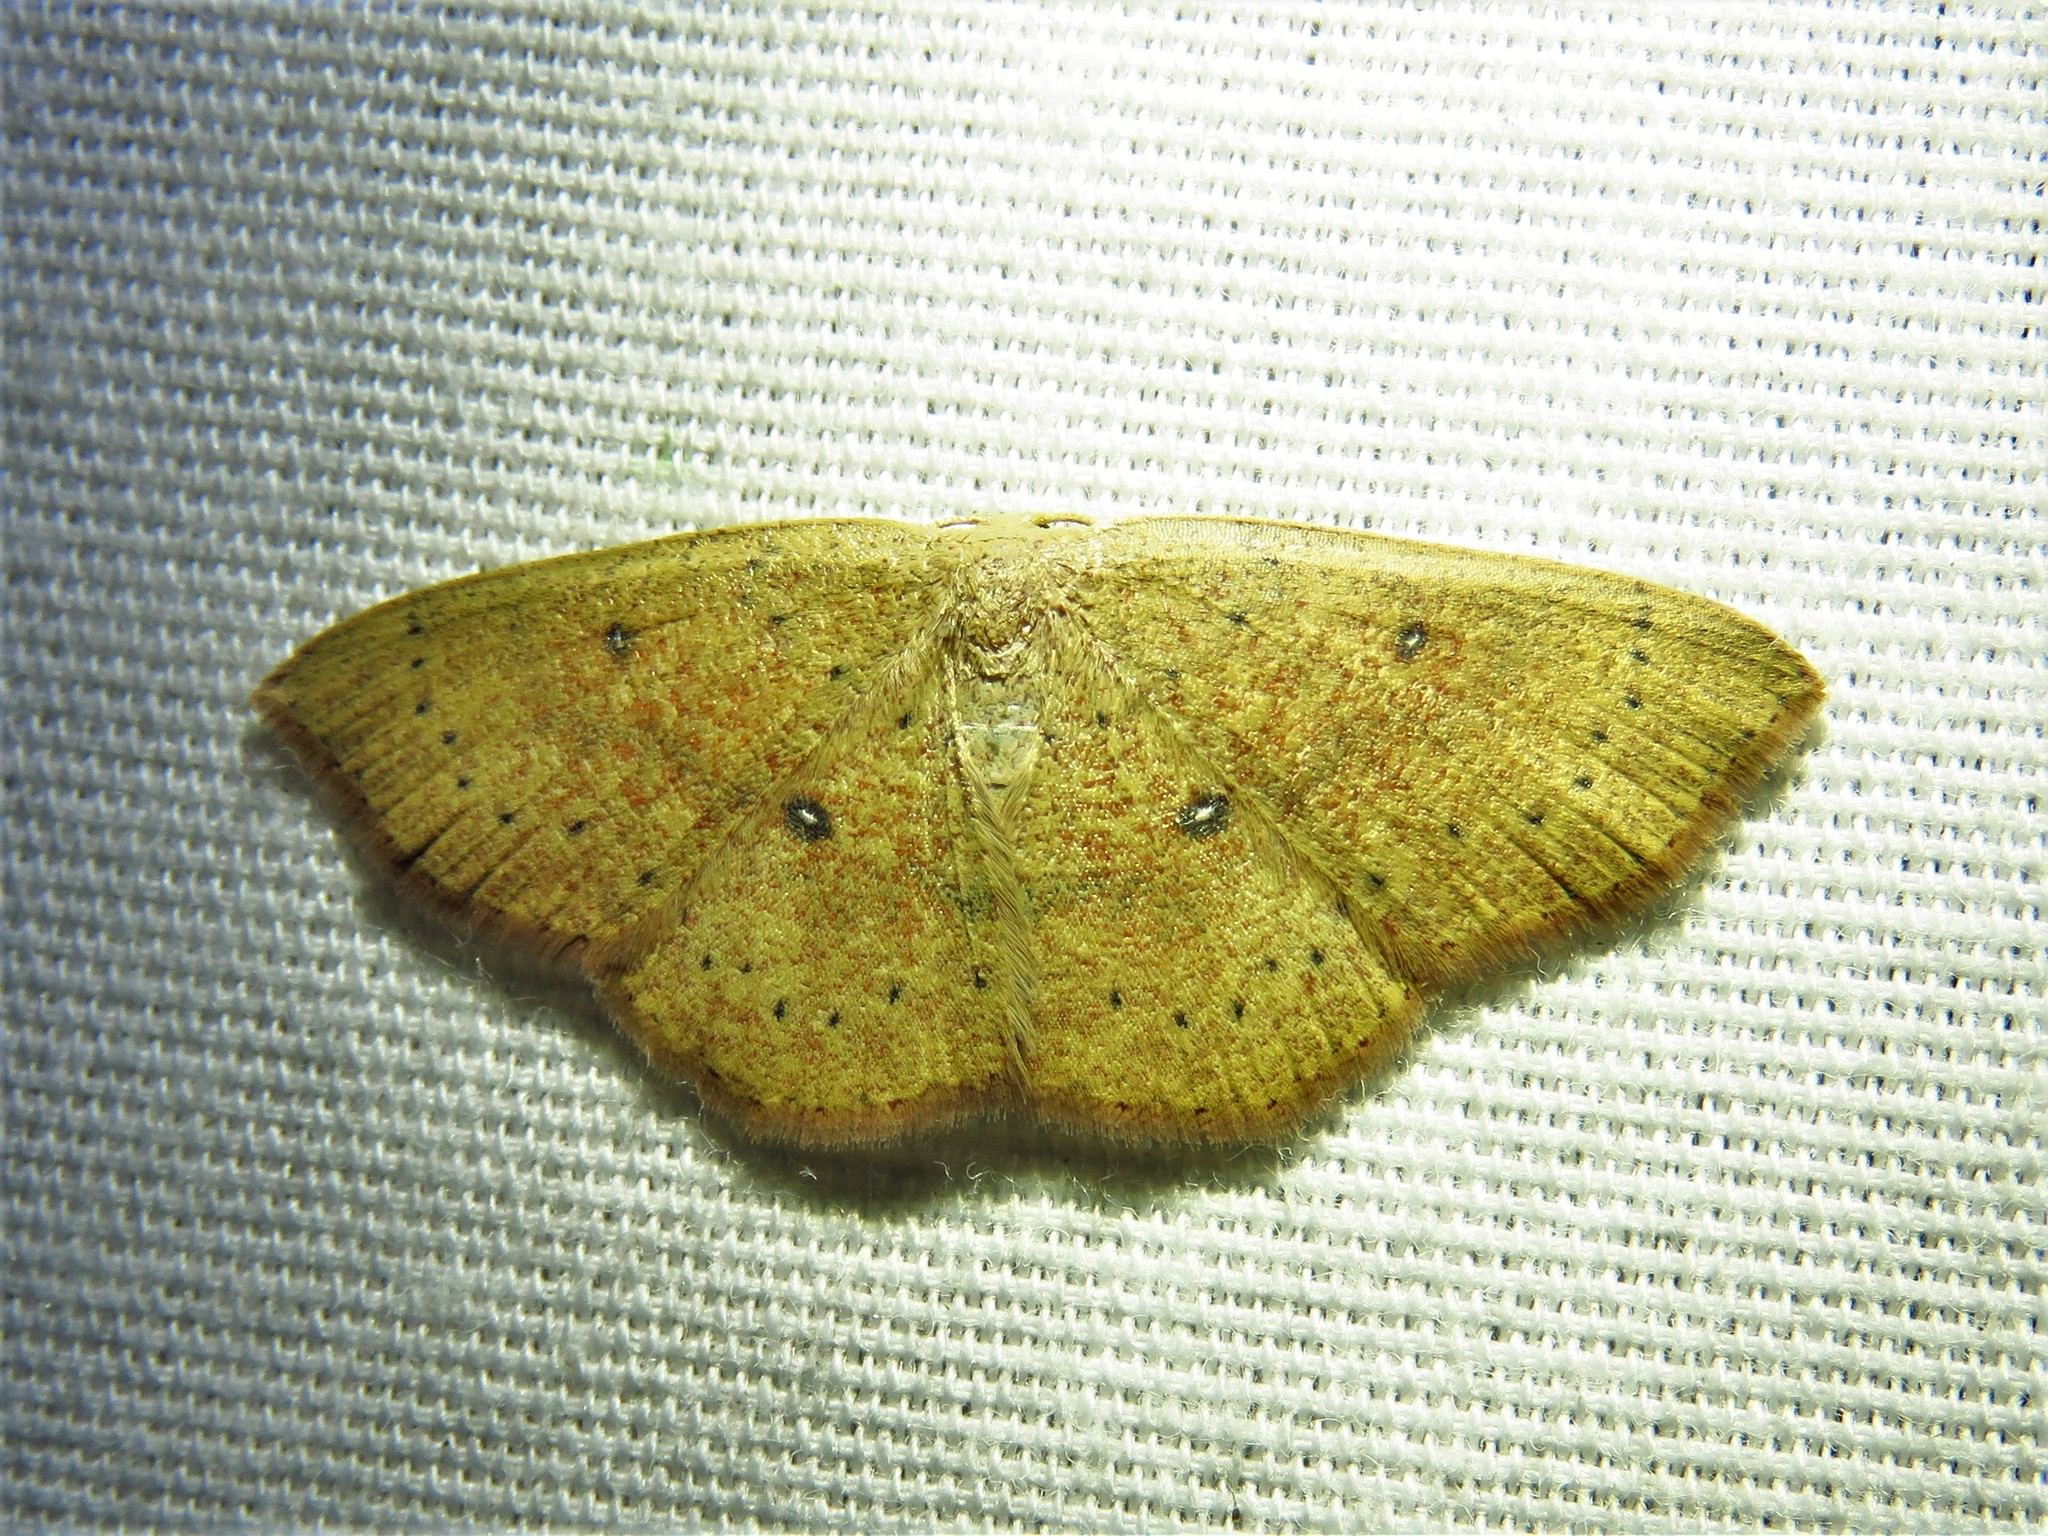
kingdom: Animalia
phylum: Arthropoda
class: Insecta
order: Lepidoptera
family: Geometridae
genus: Cyclophora
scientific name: Cyclophora packardi
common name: Packard's wave
